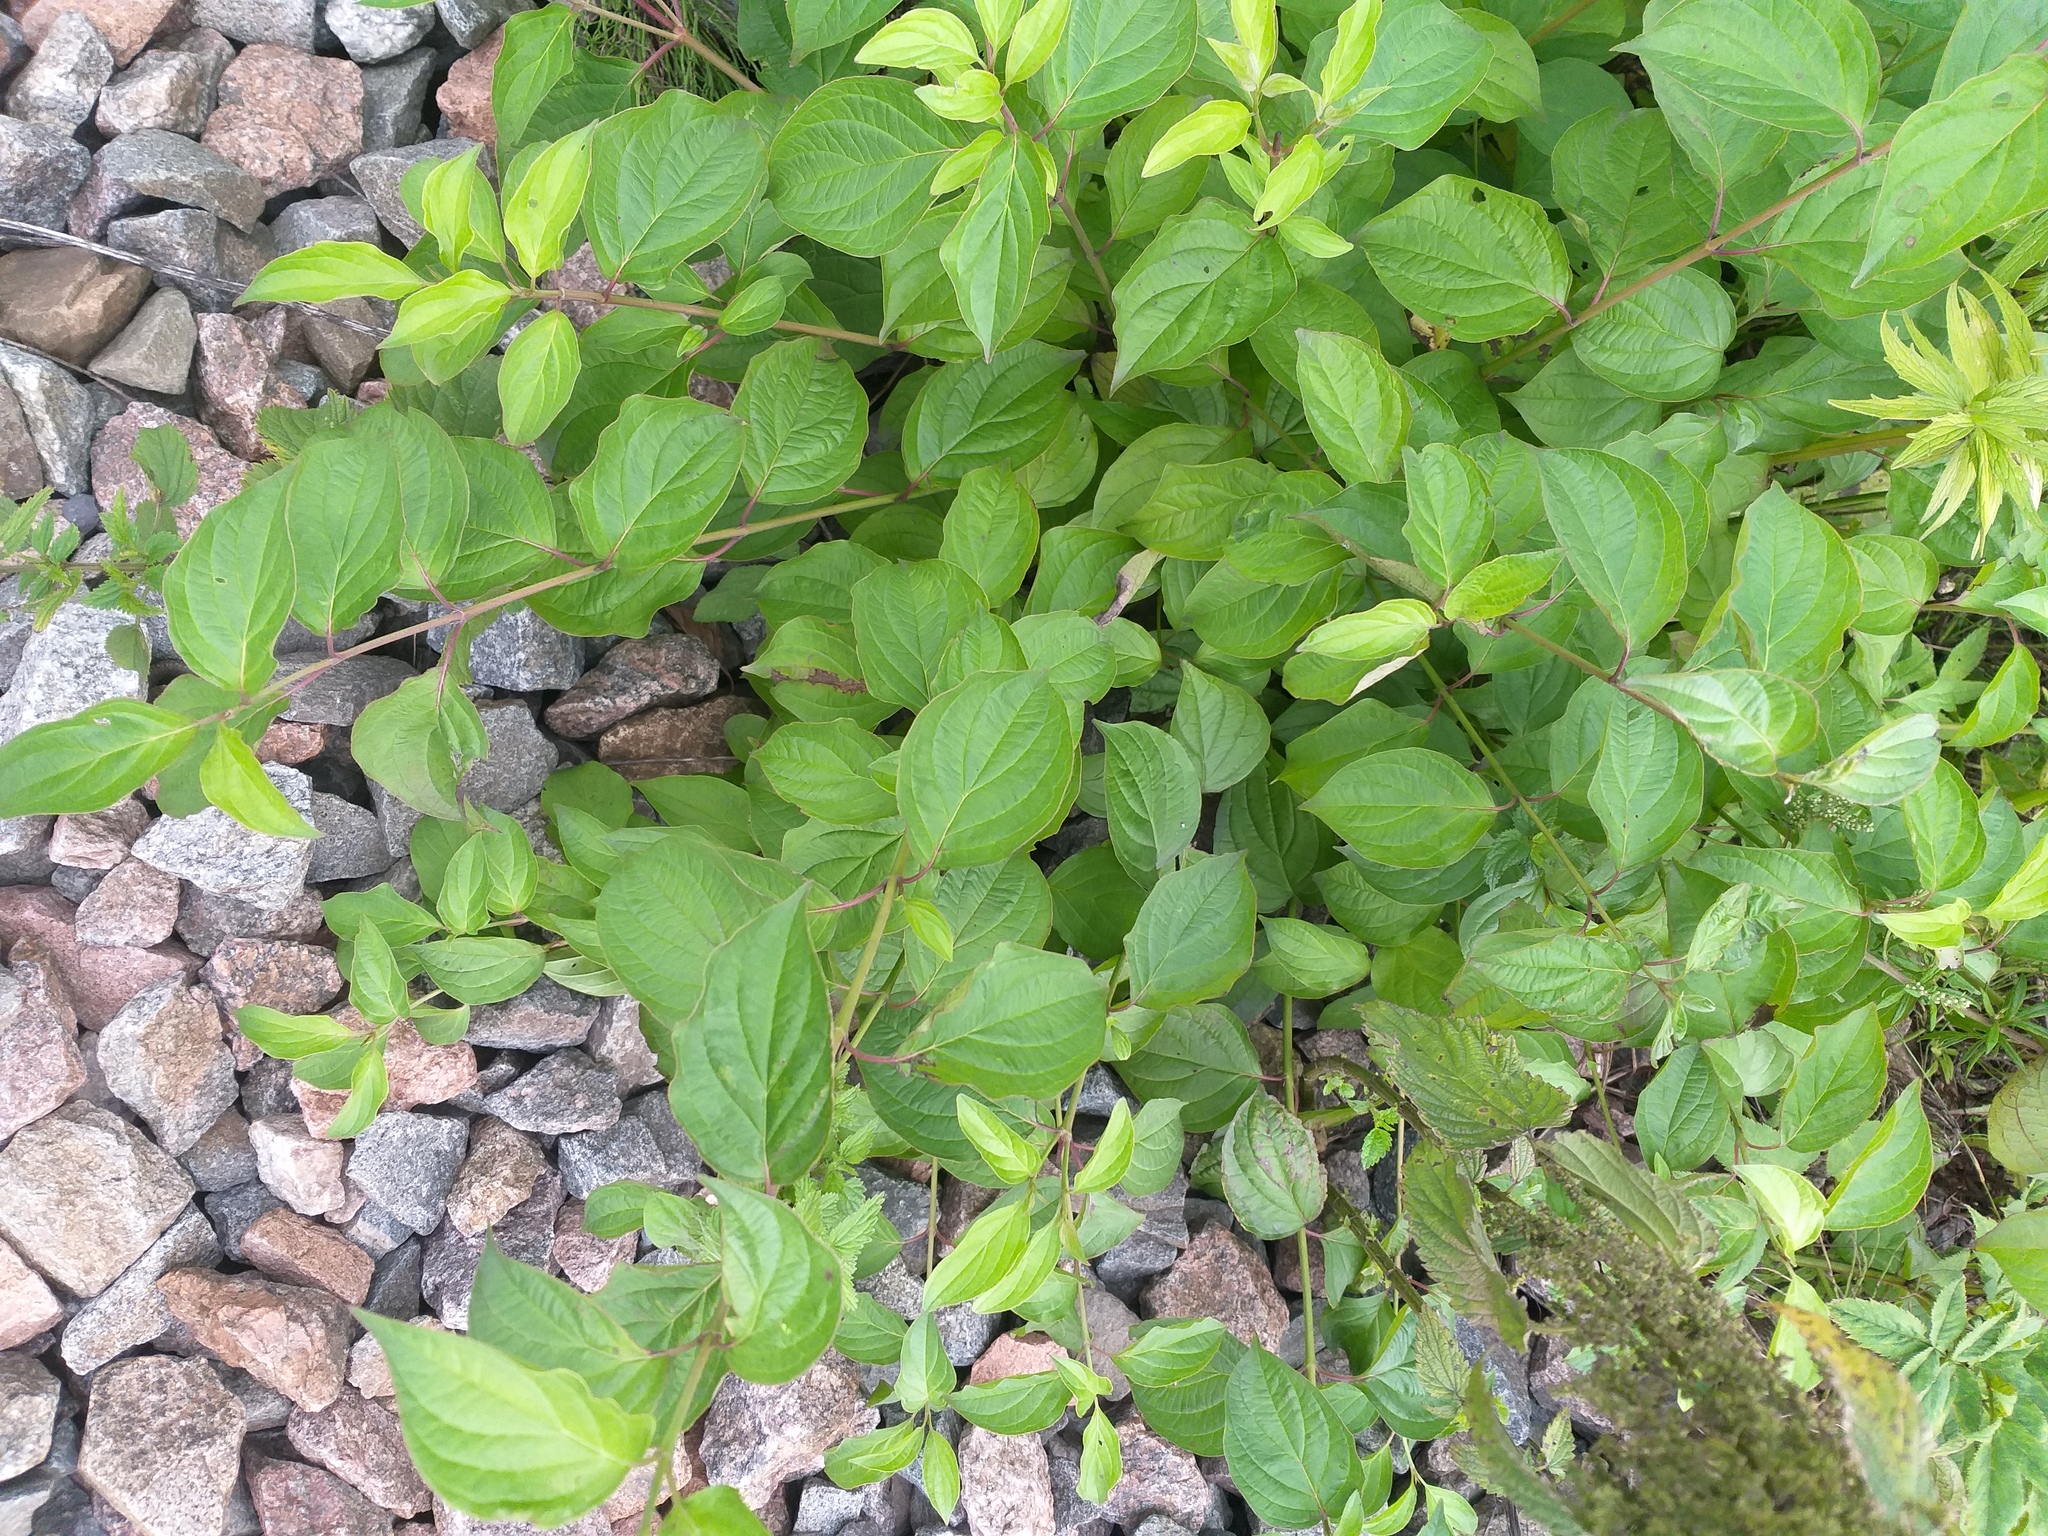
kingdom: Plantae
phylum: Tracheophyta
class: Magnoliopsida
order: Cornales
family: Cornaceae
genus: Cornus
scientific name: Cornus sanguinea
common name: Dogwood
